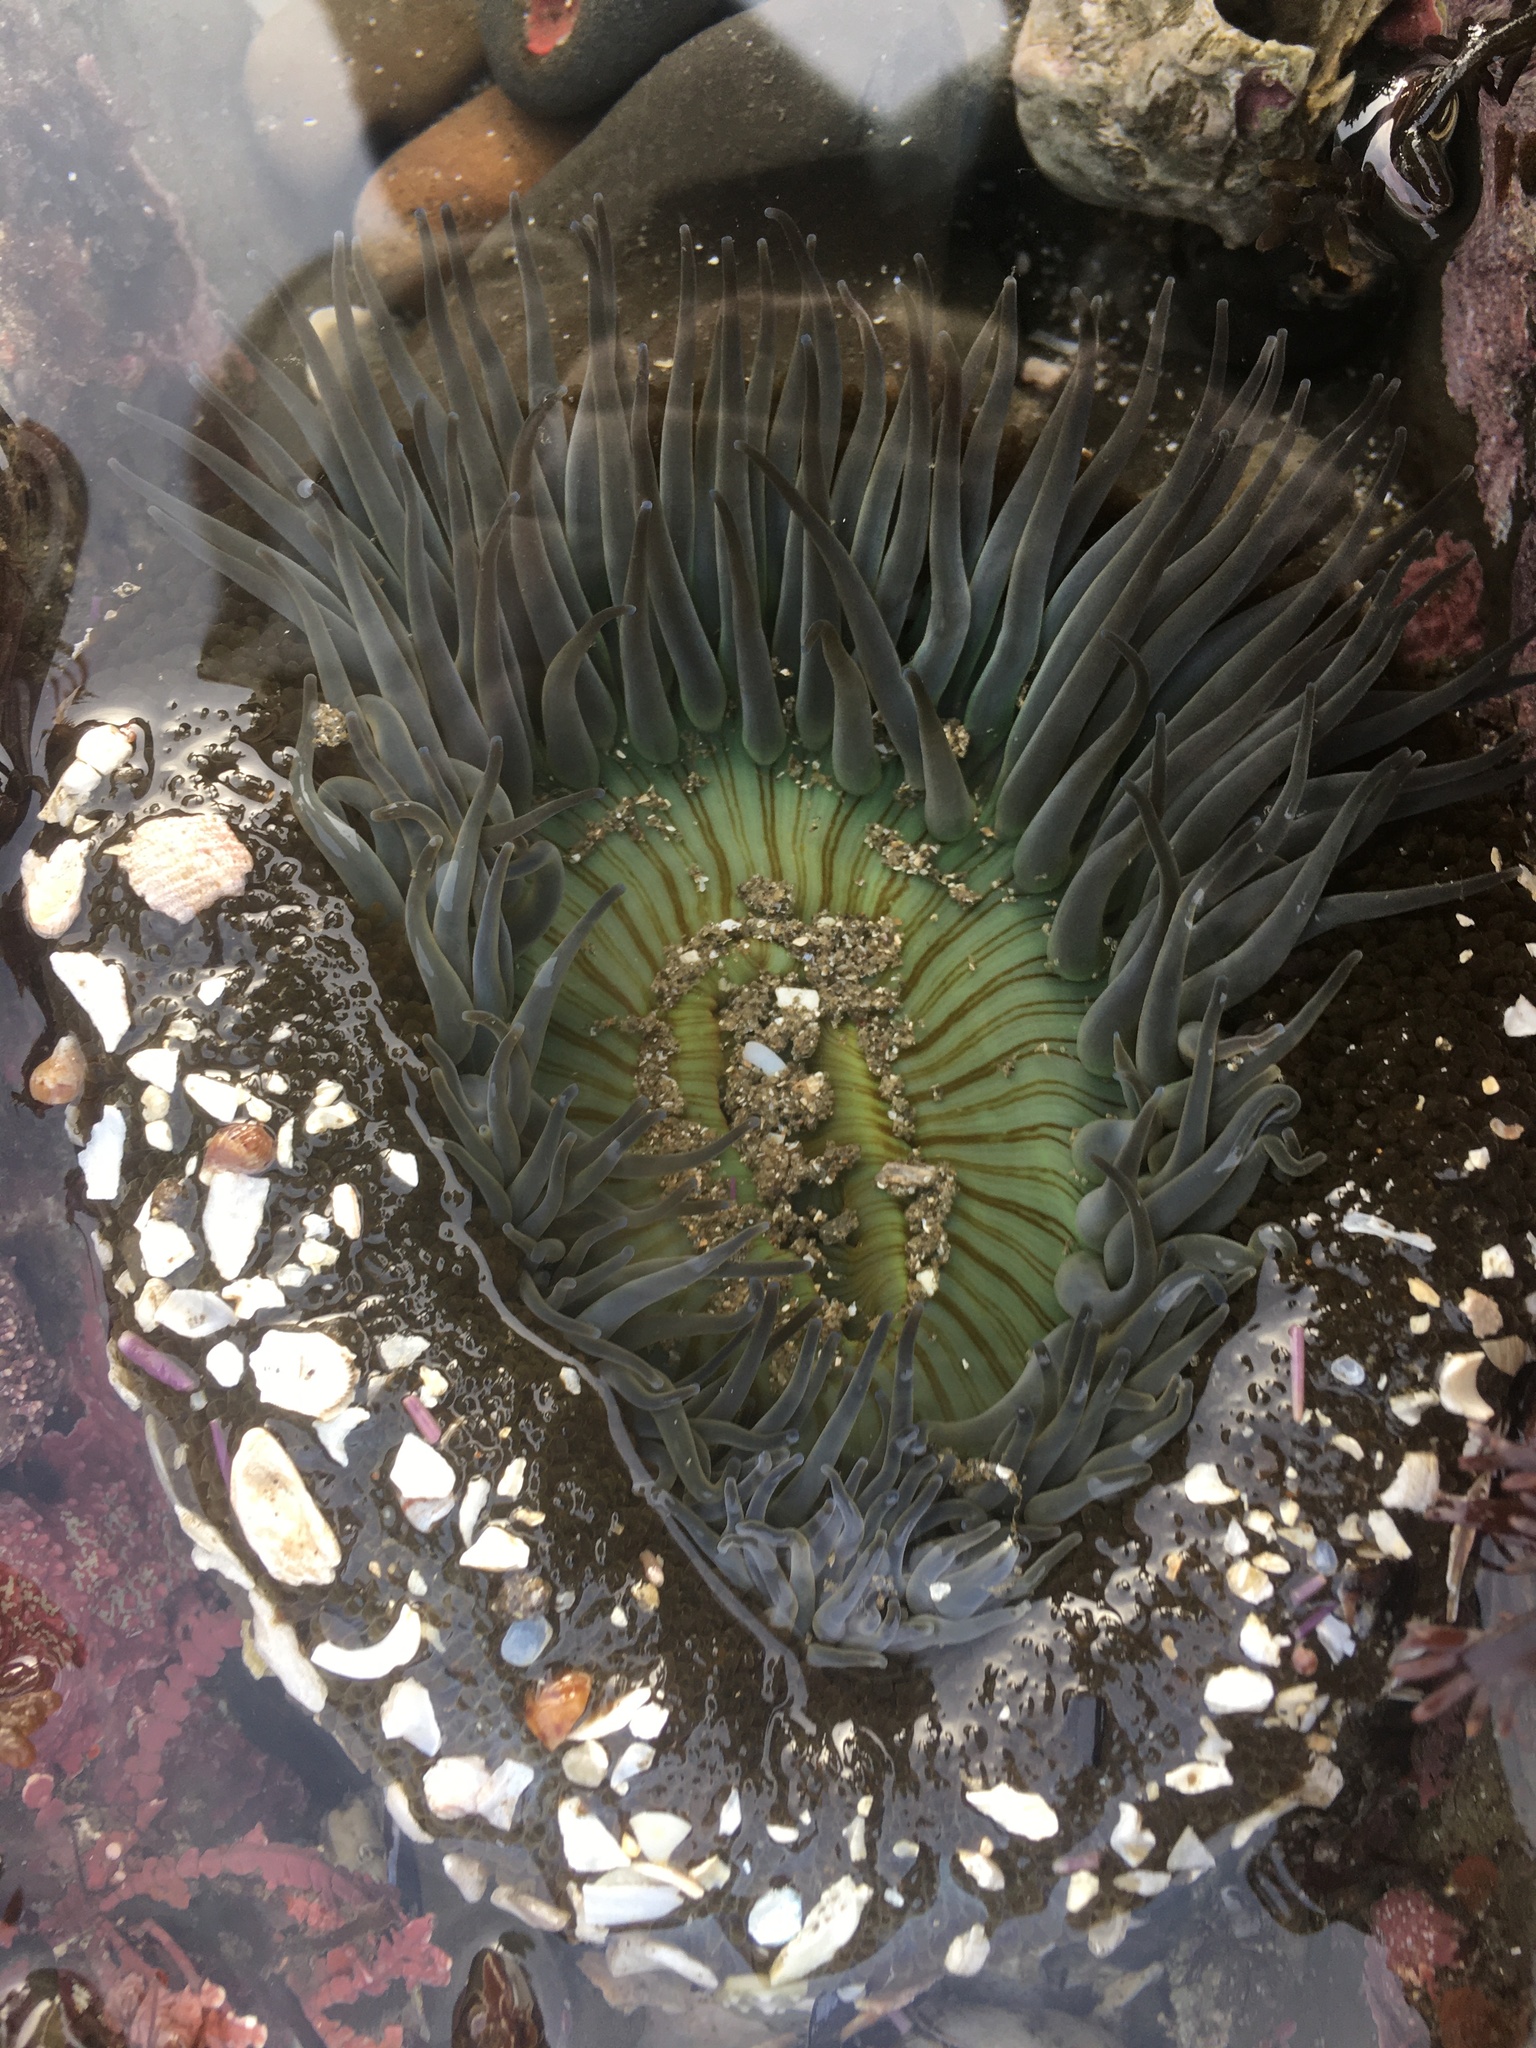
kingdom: Animalia
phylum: Cnidaria
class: Anthozoa
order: Actiniaria
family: Actiniidae
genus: Anthopleura
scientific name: Anthopleura sola
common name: Sun anemone
